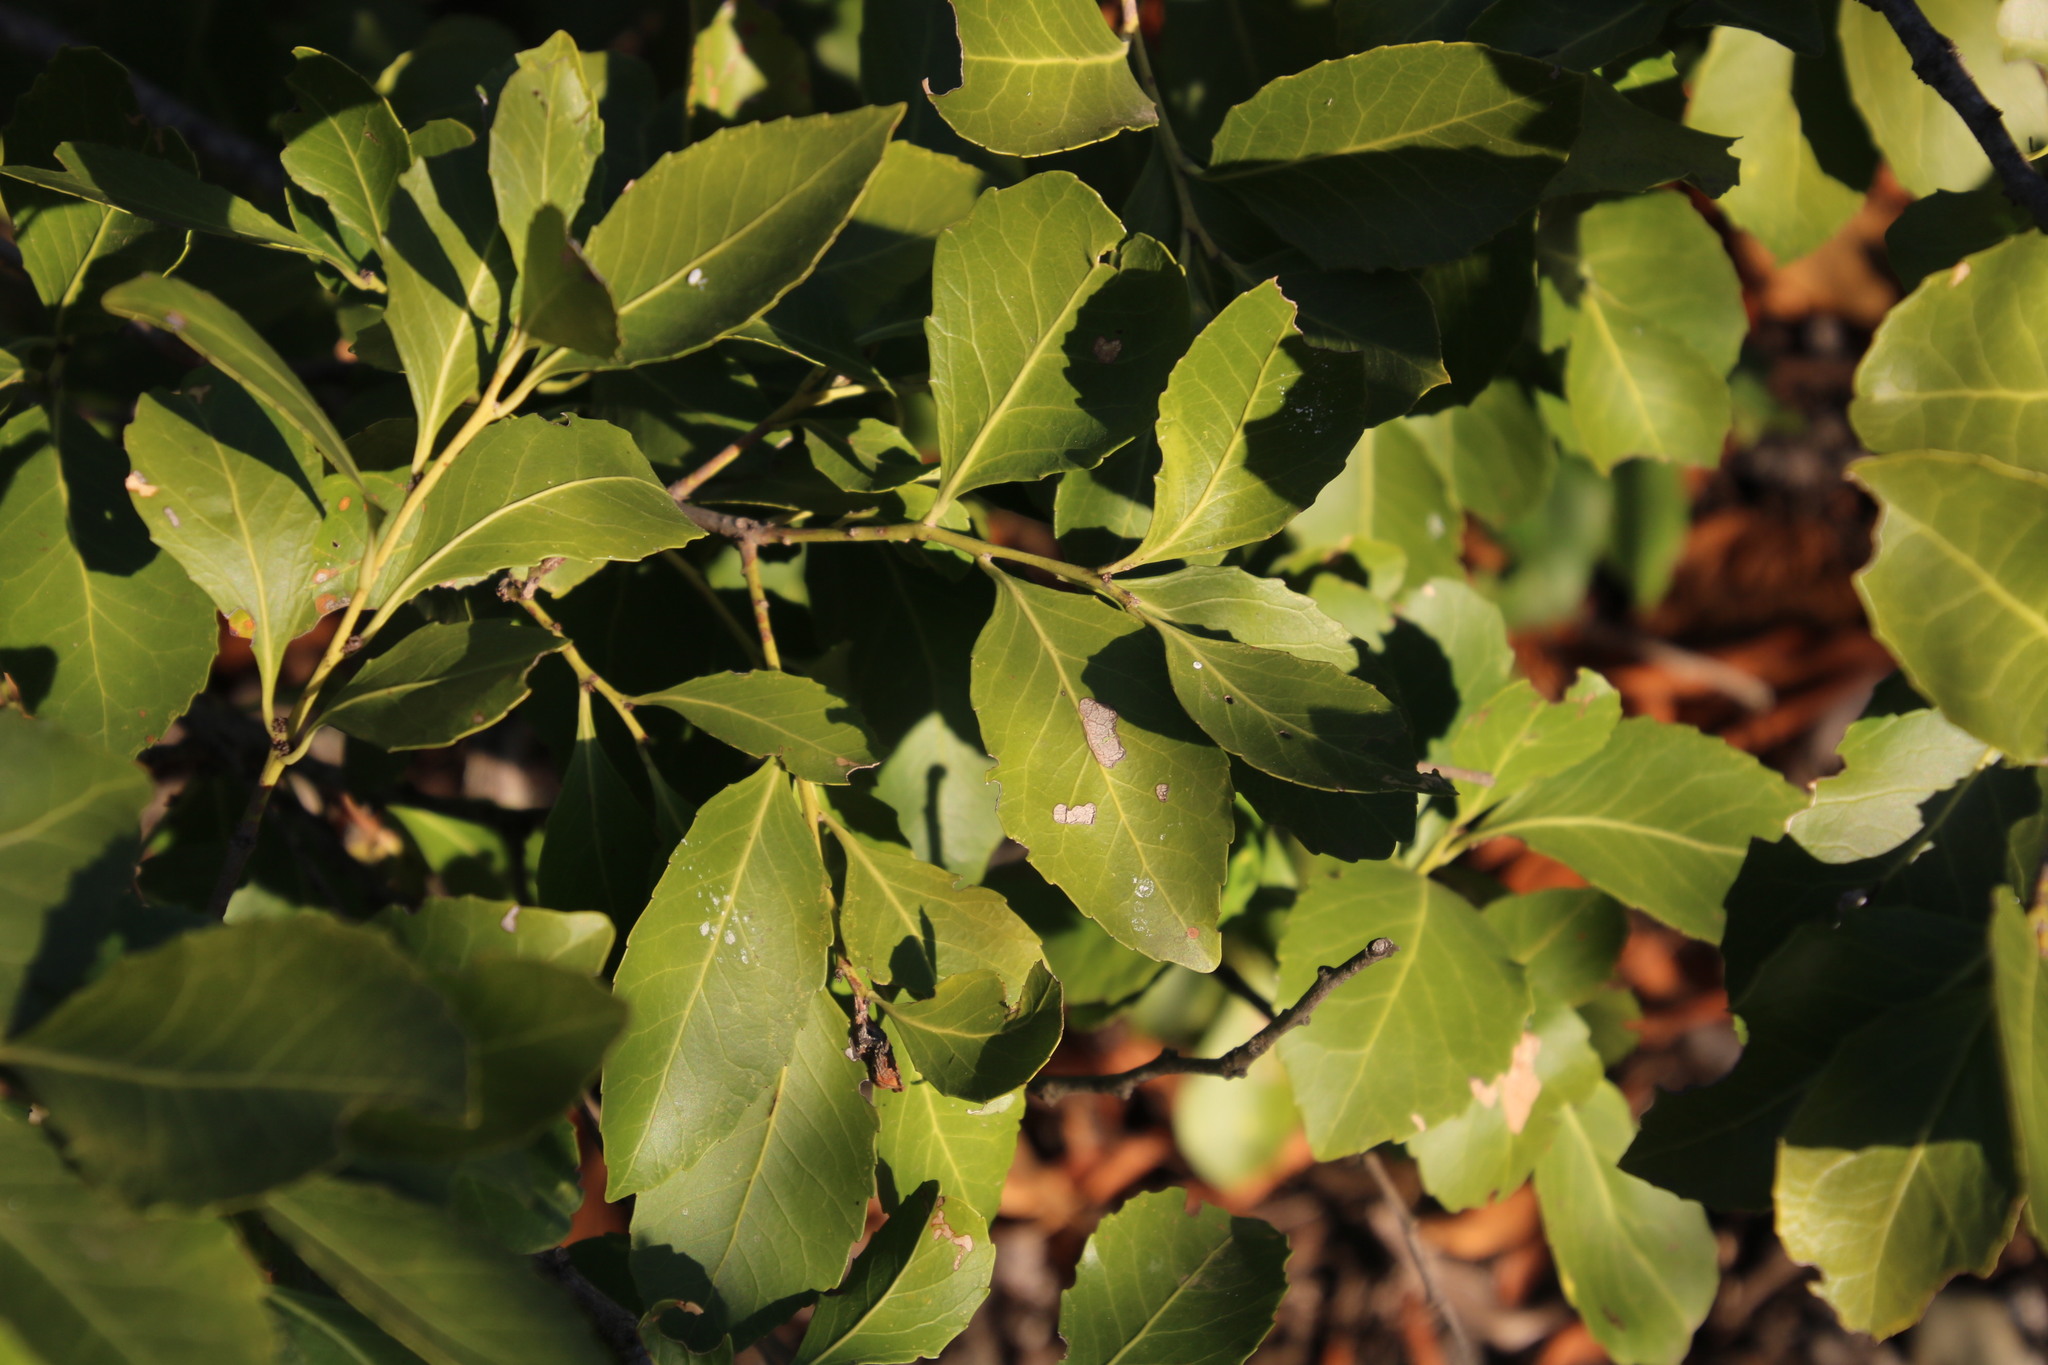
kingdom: Plantae
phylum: Tracheophyta
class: Magnoliopsida
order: Celastrales
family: Celastraceae
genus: Gymnosporia
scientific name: Gymnosporia undata
